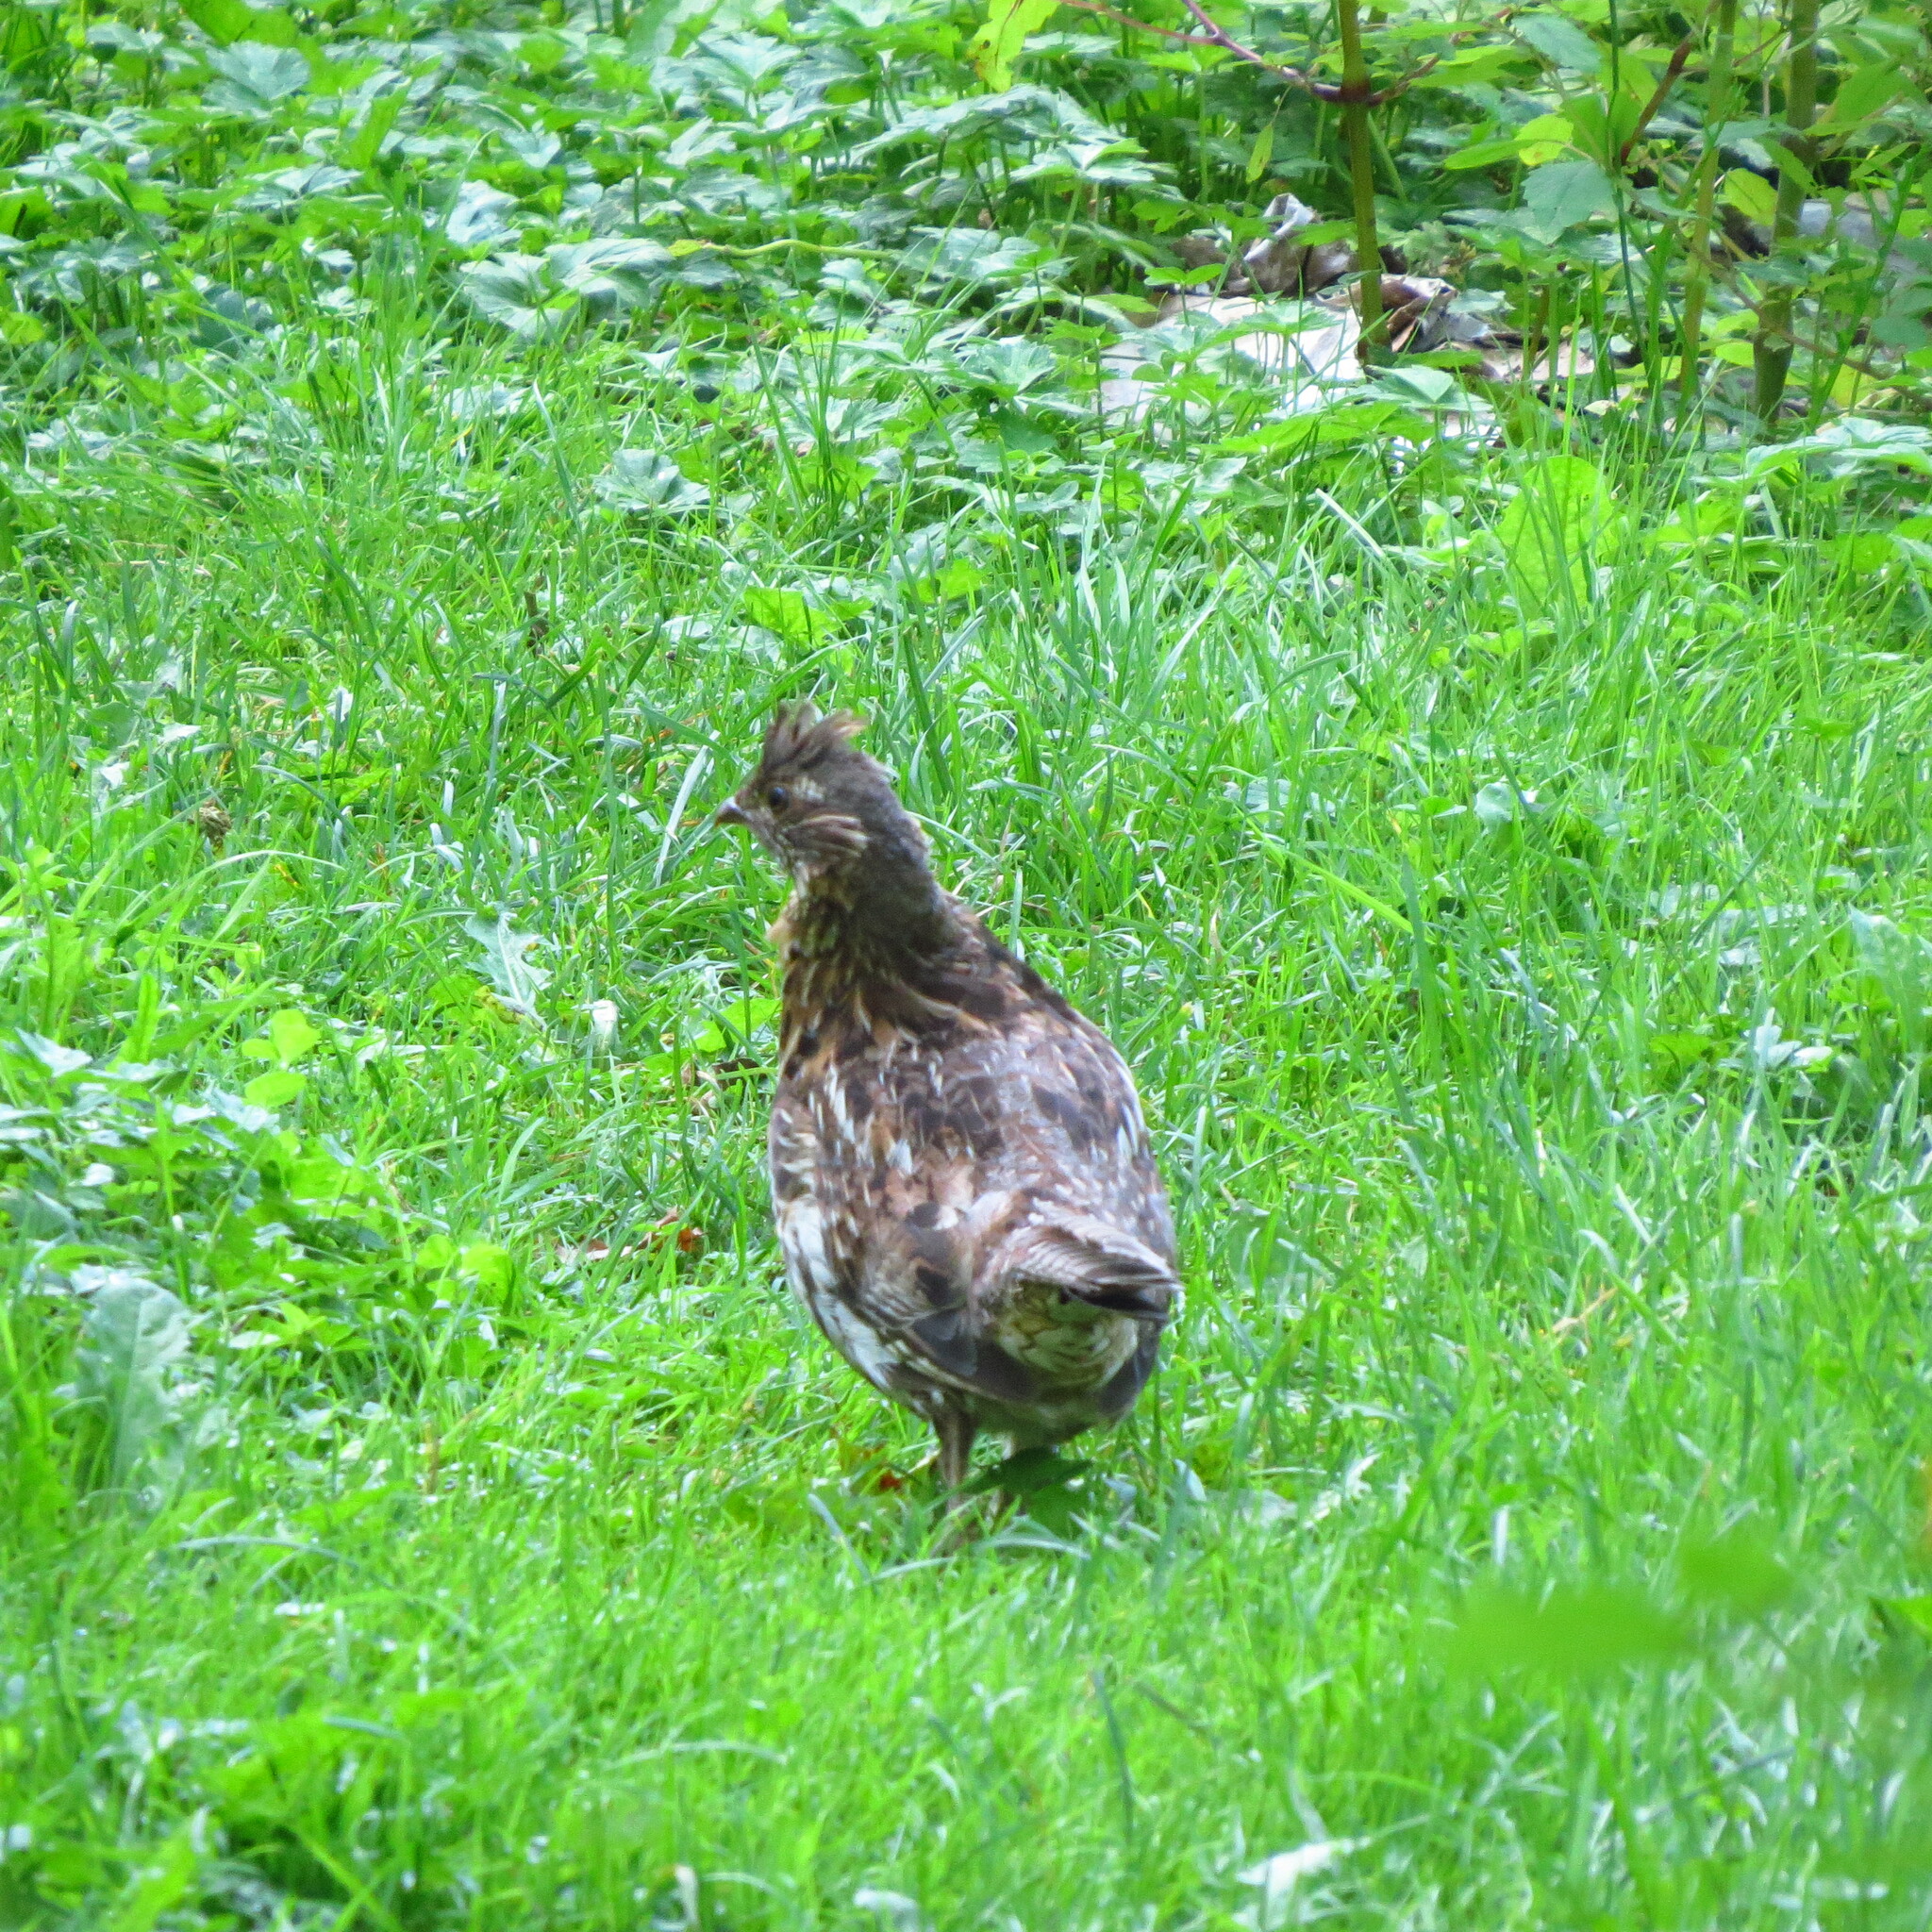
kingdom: Animalia
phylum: Chordata
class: Aves
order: Galliformes
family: Phasianidae
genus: Bonasa
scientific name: Bonasa umbellus
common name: Ruffed grouse
